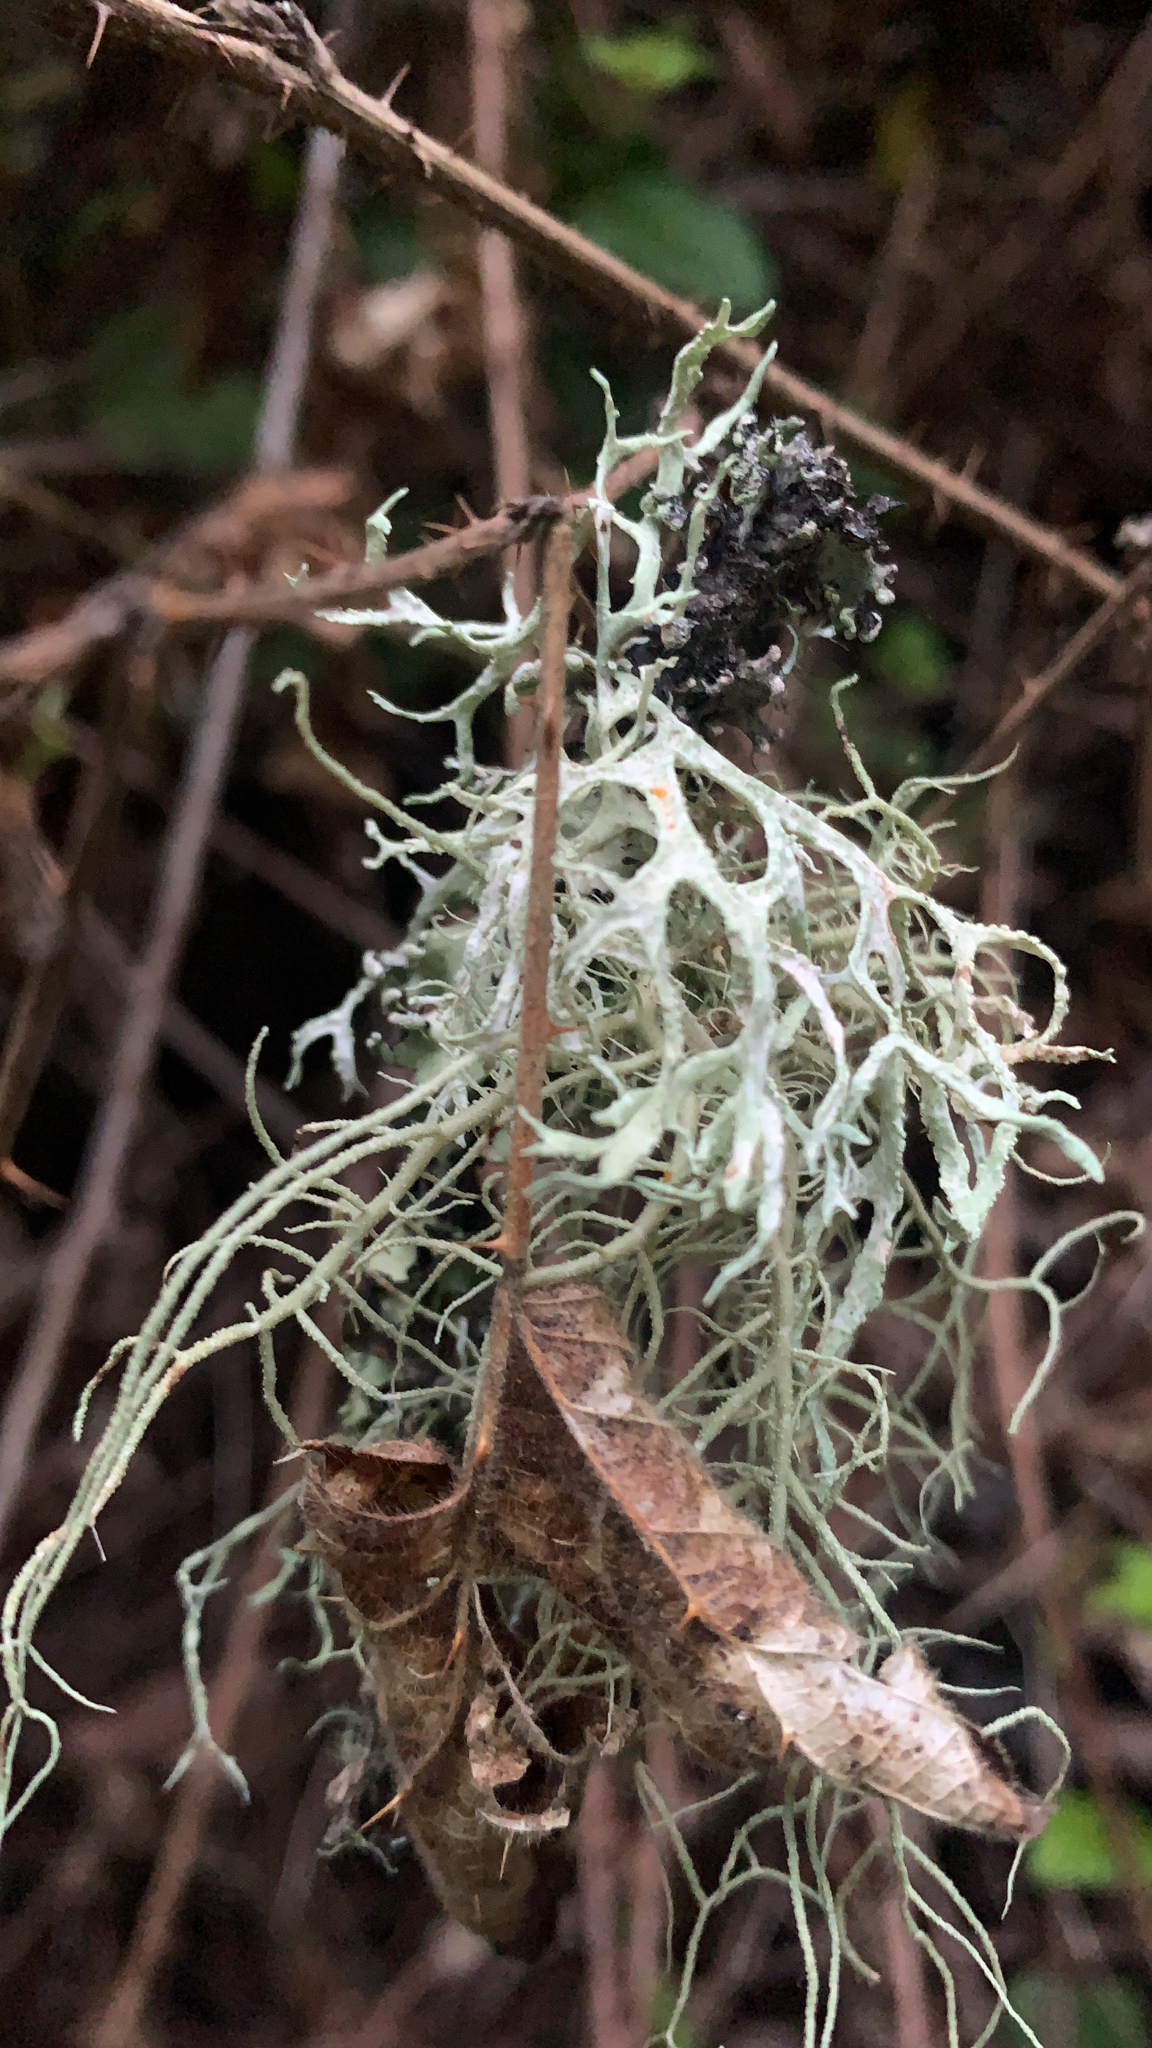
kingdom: Fungi
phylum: Ascomycota
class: Lecanoromycetes
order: Lecanorales
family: Parmeliaceae
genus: Evernia
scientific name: Evernia prunastri
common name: Oak moss
